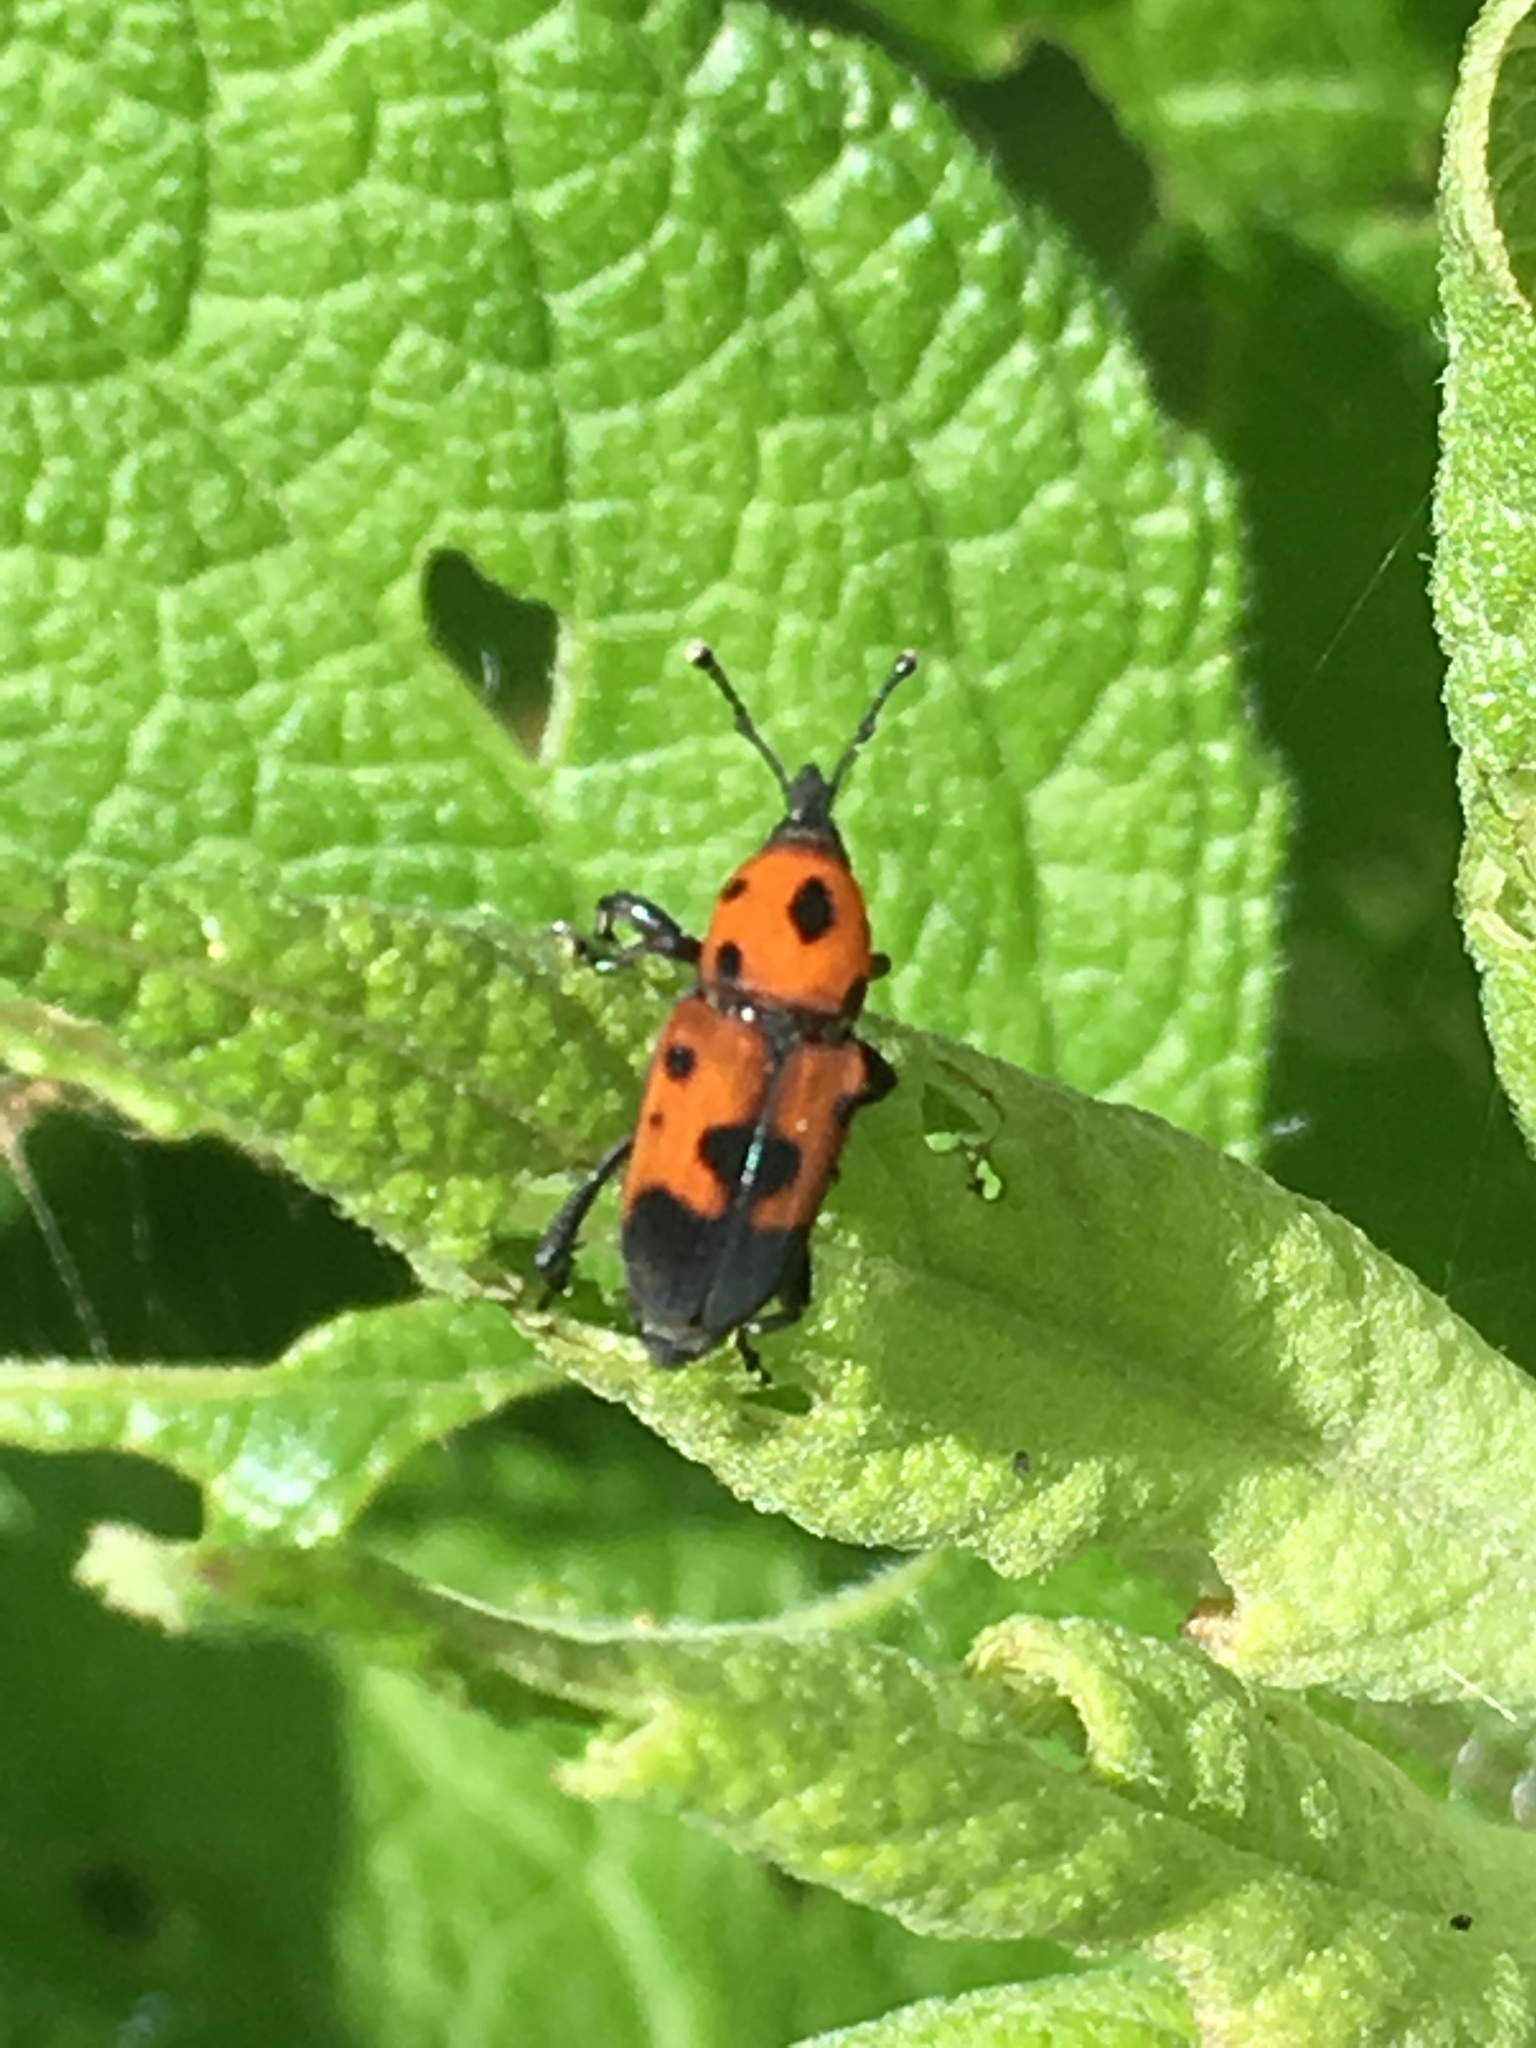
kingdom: Animalia
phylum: Arthropoda
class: Insecta
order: Coleoptera
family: Dryophthoridae
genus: Rhodobaenus
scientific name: Rhodobaenus quinquepunctatus
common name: Cocklebur weevil
